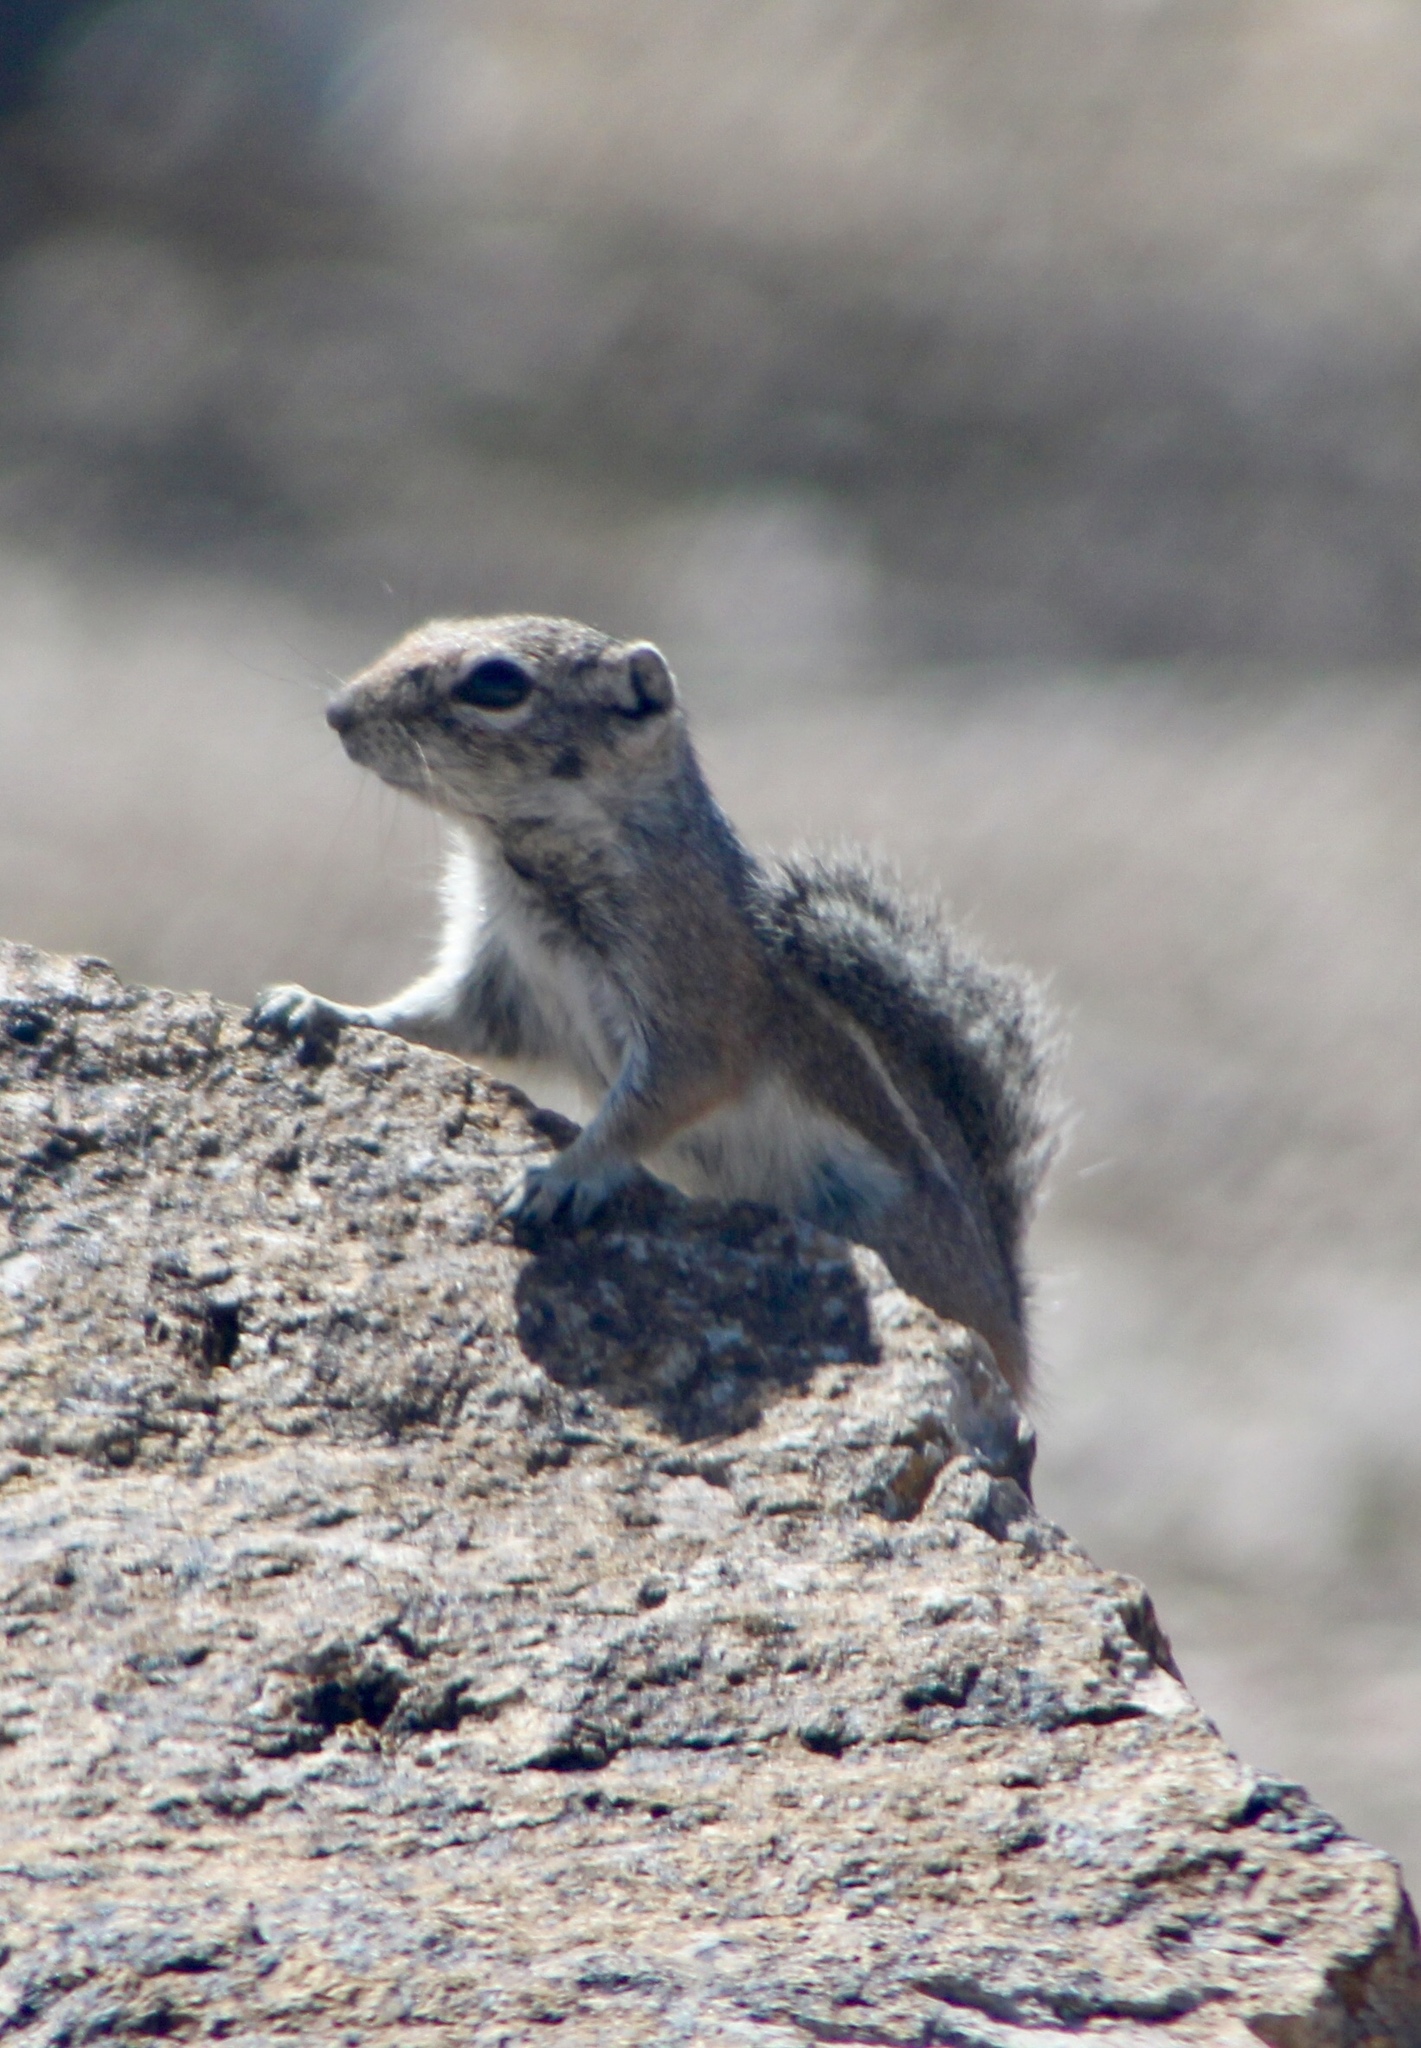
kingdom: Animalia
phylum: Chordata
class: Mammalia
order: Rodentia
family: Sciuridae
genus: Ammospermophilus
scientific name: Ammospermophilus harrisii
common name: Harris's antelope squirrel
